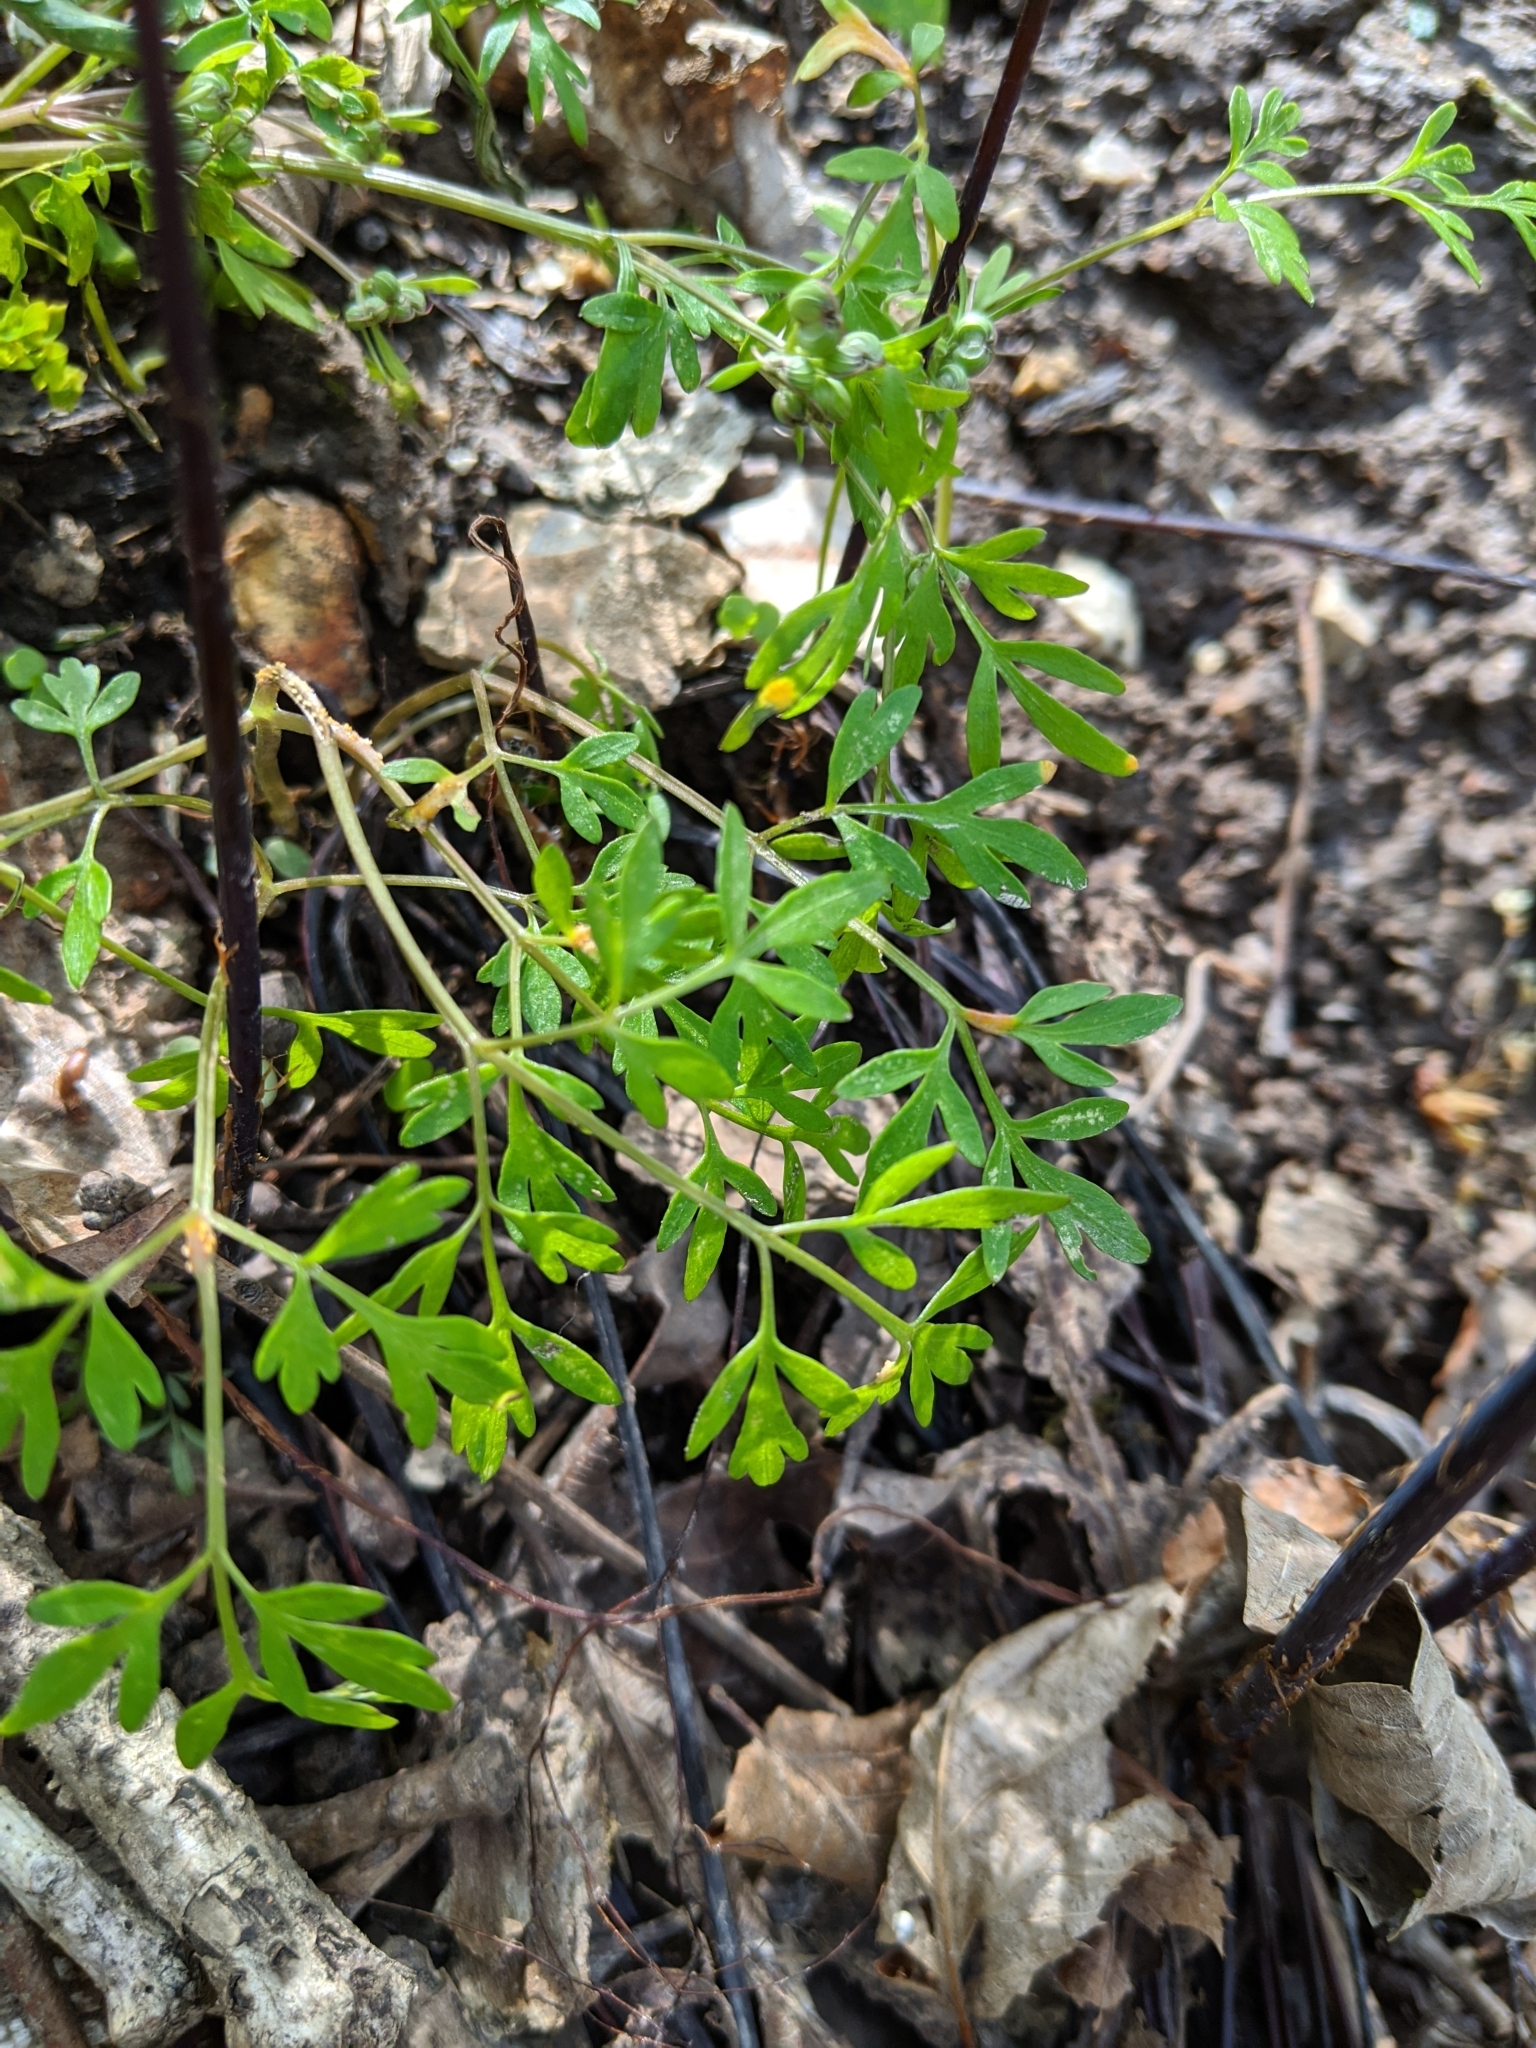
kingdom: Plantae
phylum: Tracheophyta
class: Magnoliopsida
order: Apiales
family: Apiaceae
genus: Erigenia
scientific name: Erigenia bulbosa
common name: Pepper-and-salt
